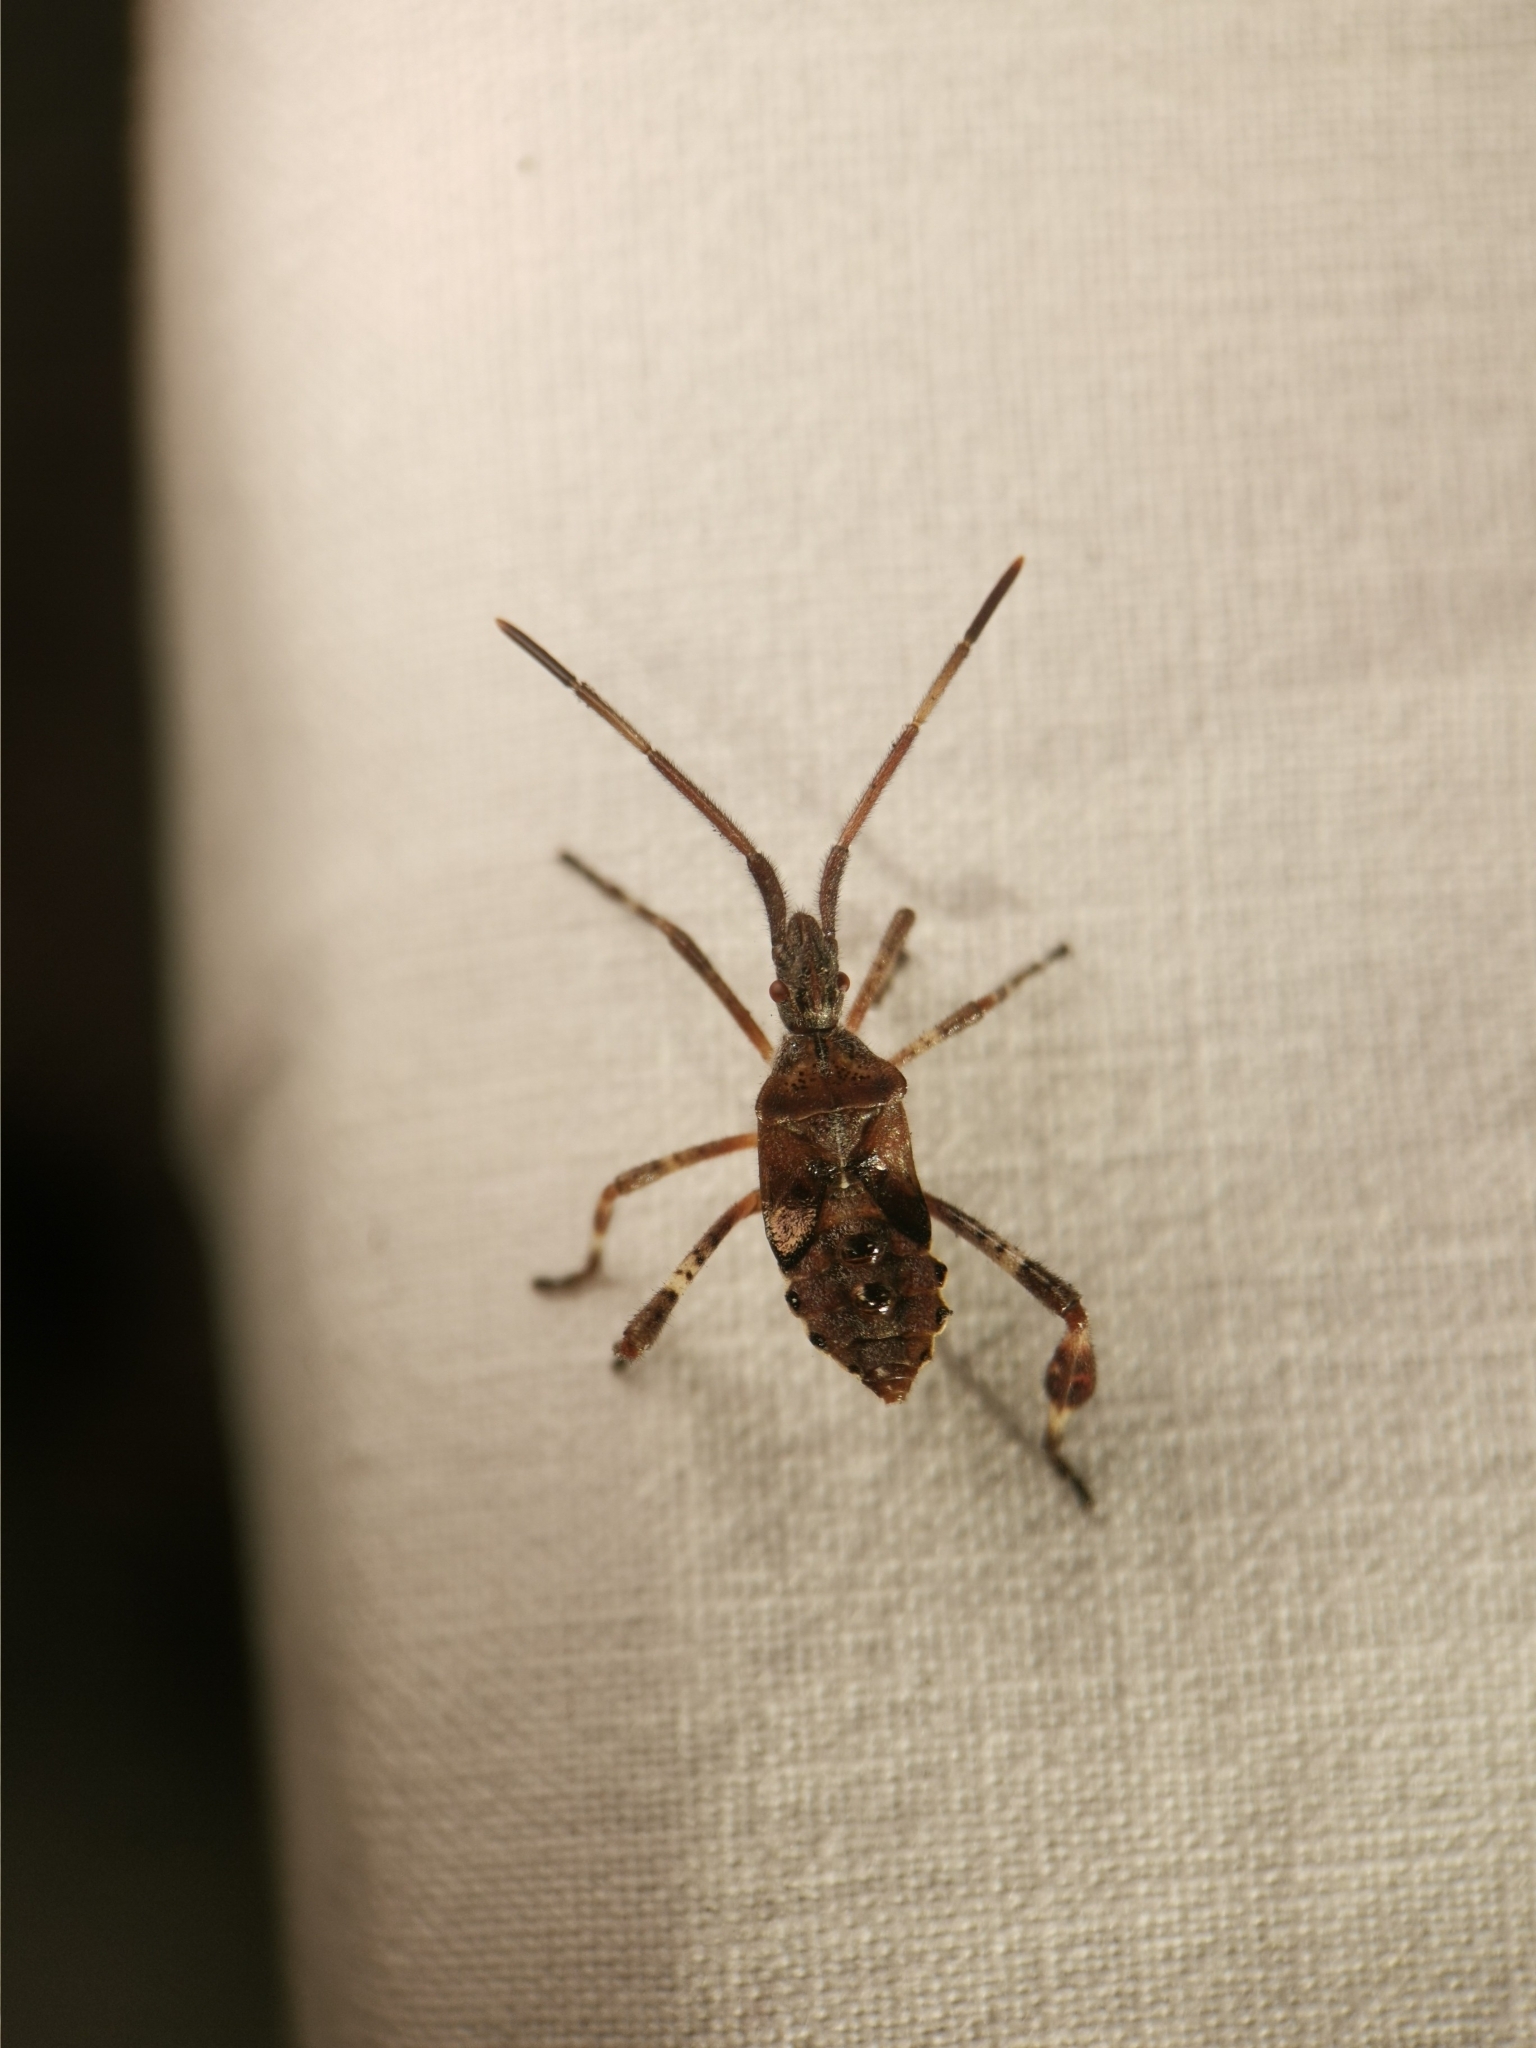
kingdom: Animalia
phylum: Arthropoda
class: Insecta
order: Hemiptera
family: Coreidae
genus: Leptoglossus
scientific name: Leptoglossus occidentalis
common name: Western conifer-seed bug
